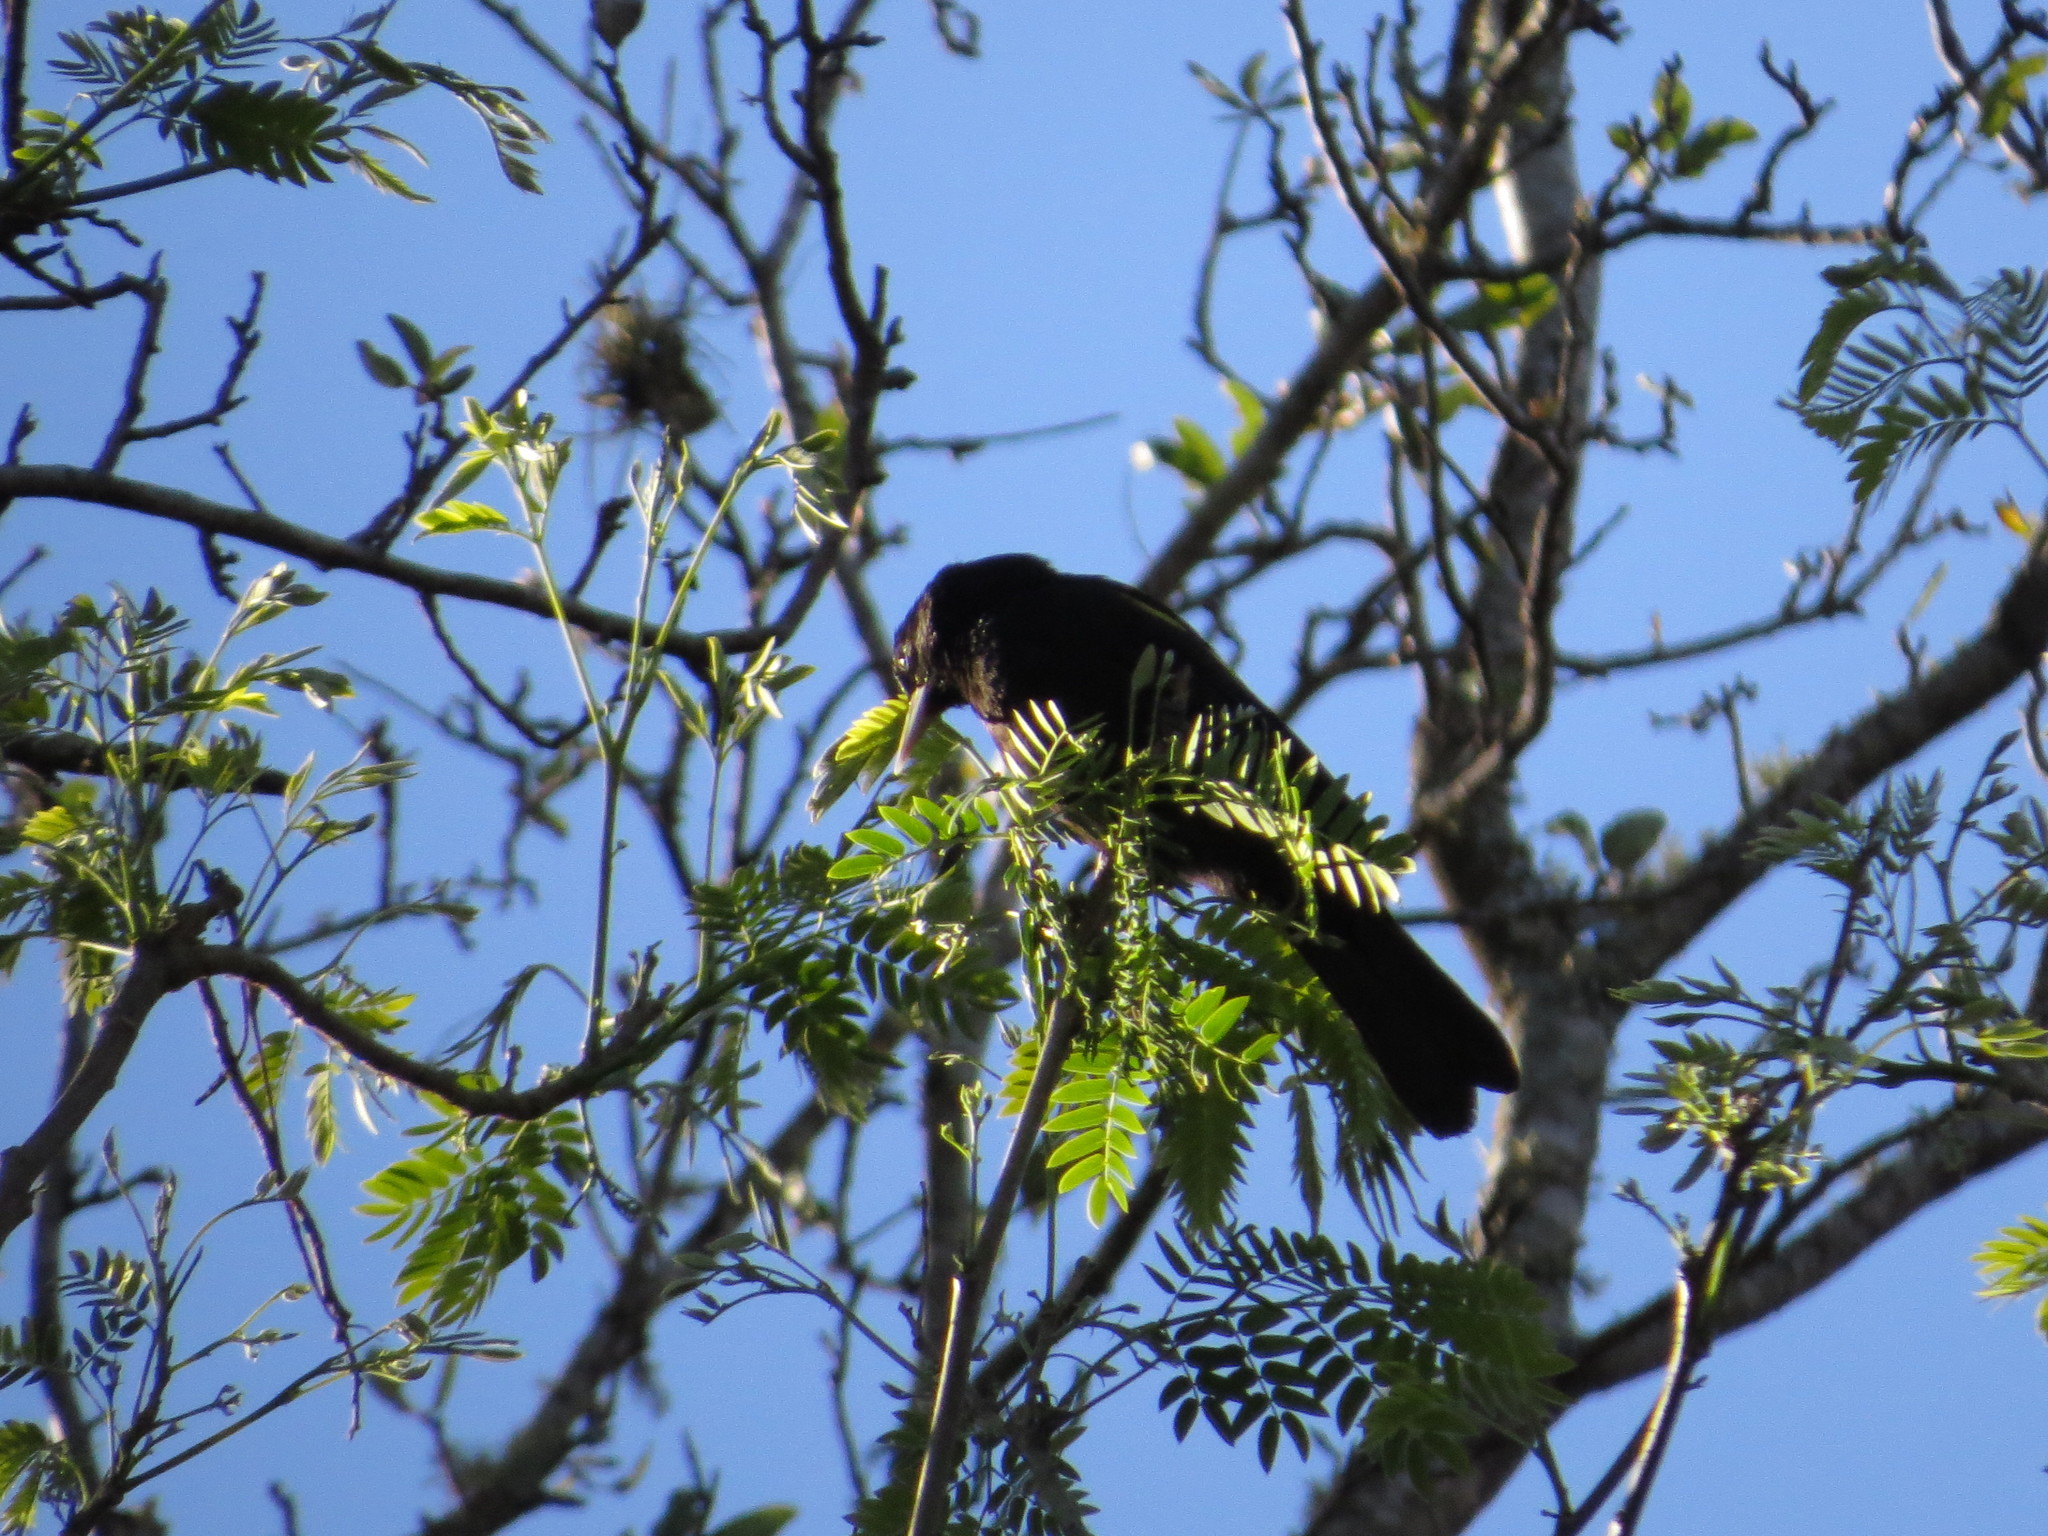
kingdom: Animalia
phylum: Chordata
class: Aves
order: Passeriformes
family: Icteridae
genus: Cacicus
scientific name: Cacicus chrysopterus
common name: Golden-winged cacique
